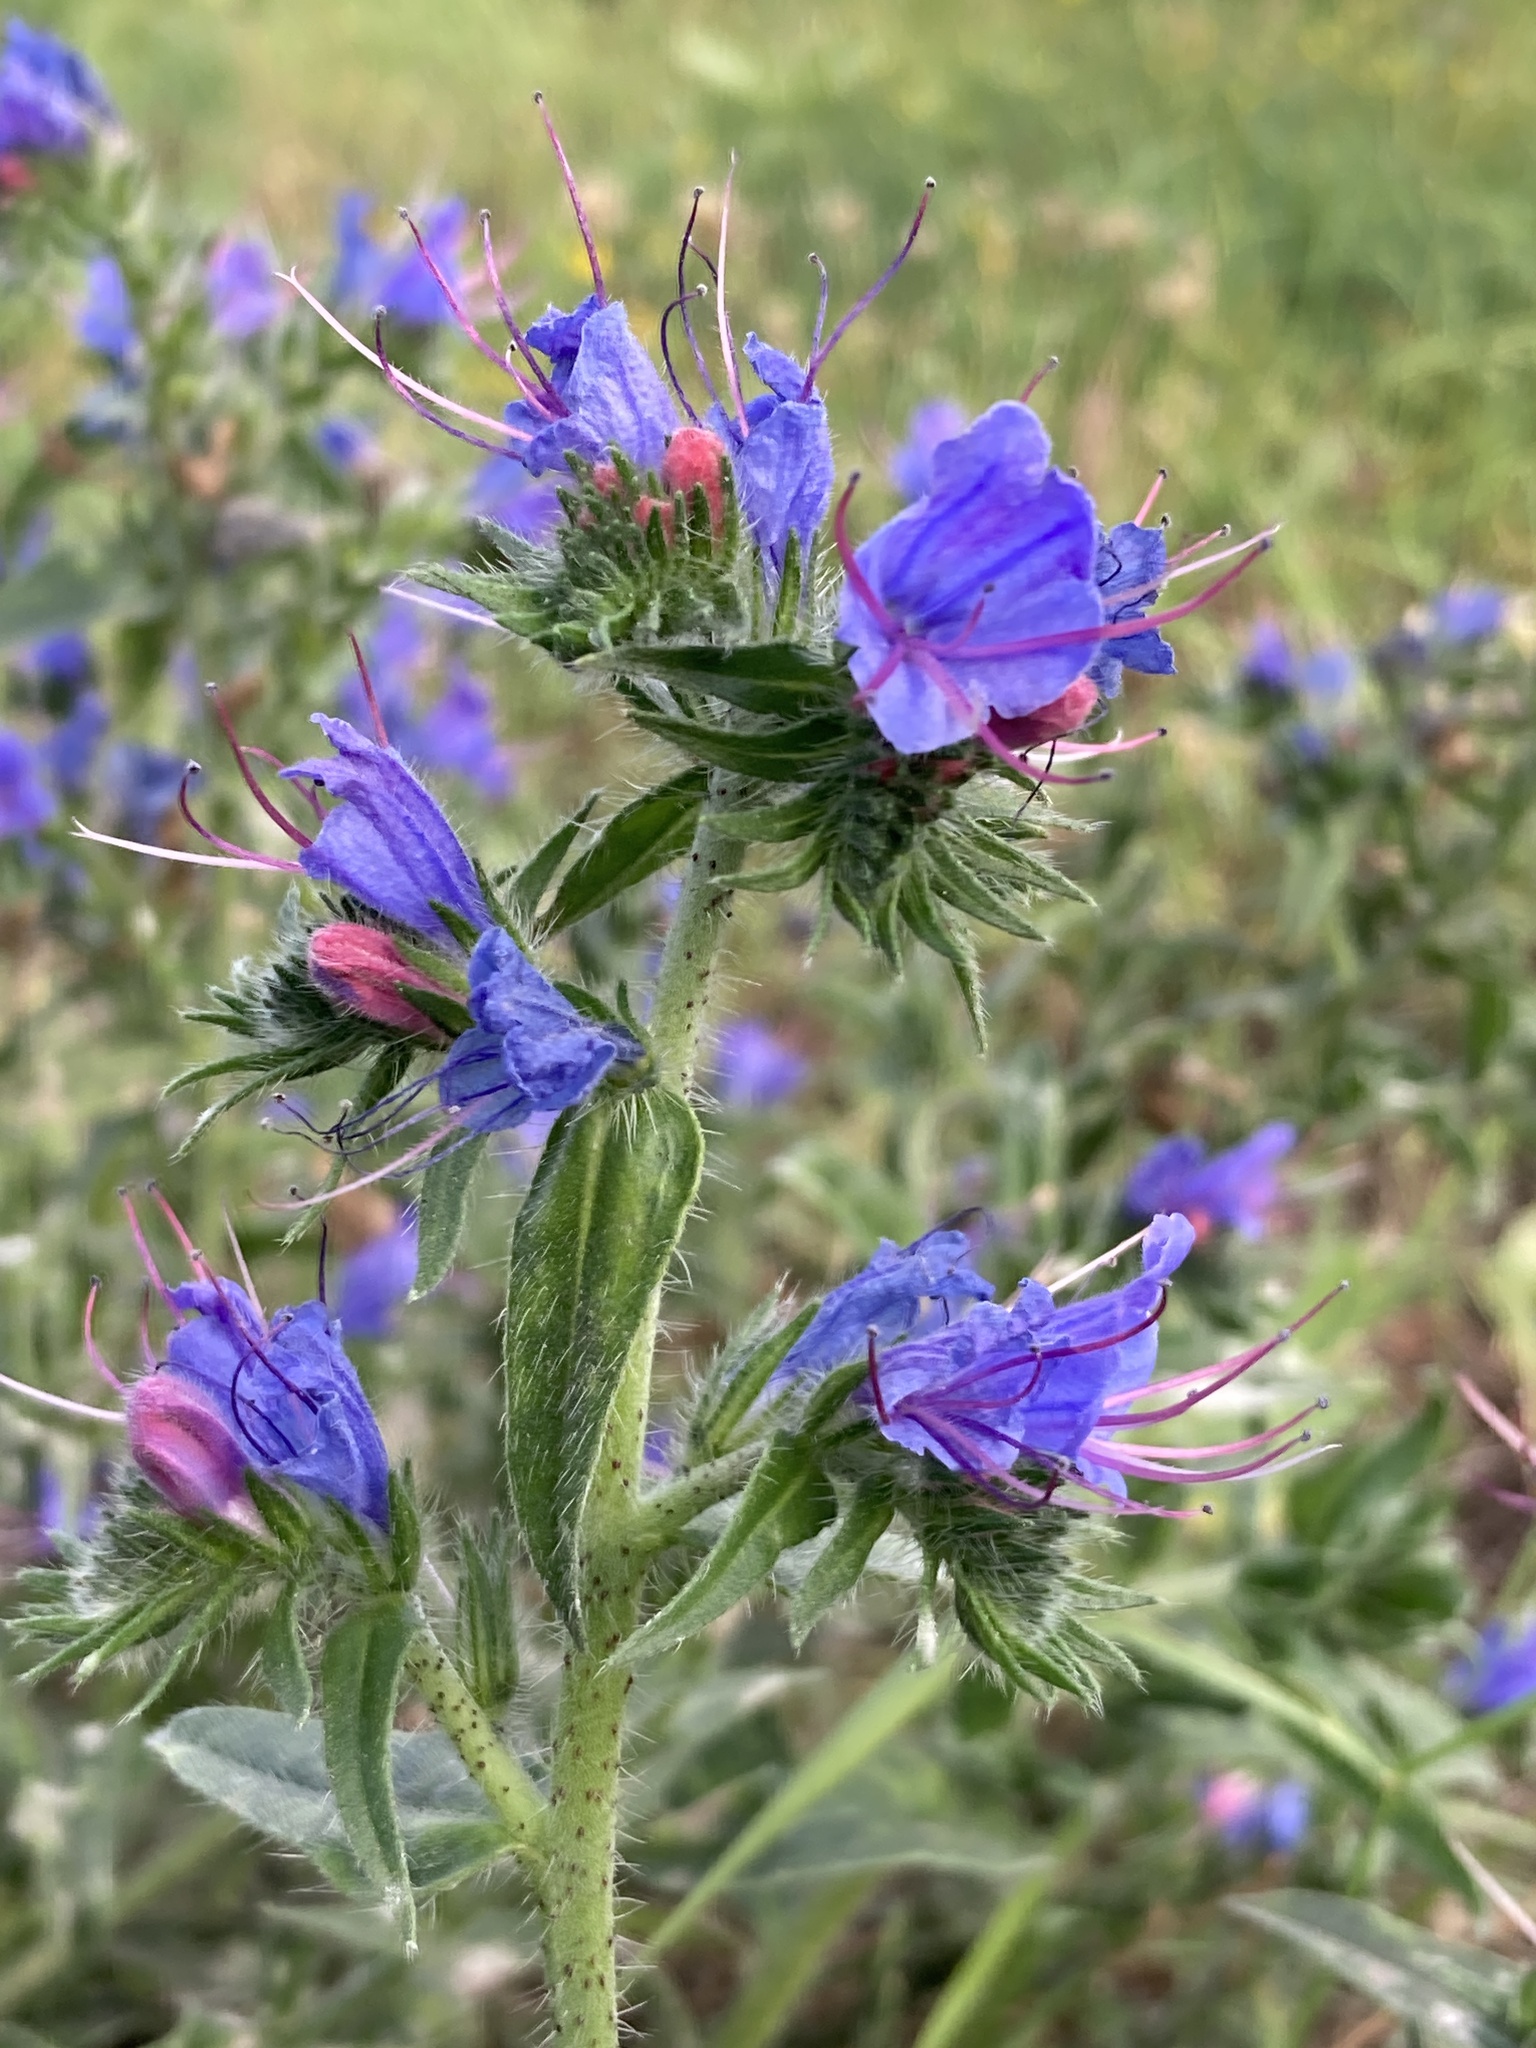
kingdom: Plantae
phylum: Tracheophyta
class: Magnoliopsida
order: Boraginales
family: Boraginaceae
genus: Echium
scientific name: Echium vulgare
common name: Common viper's bugloss
